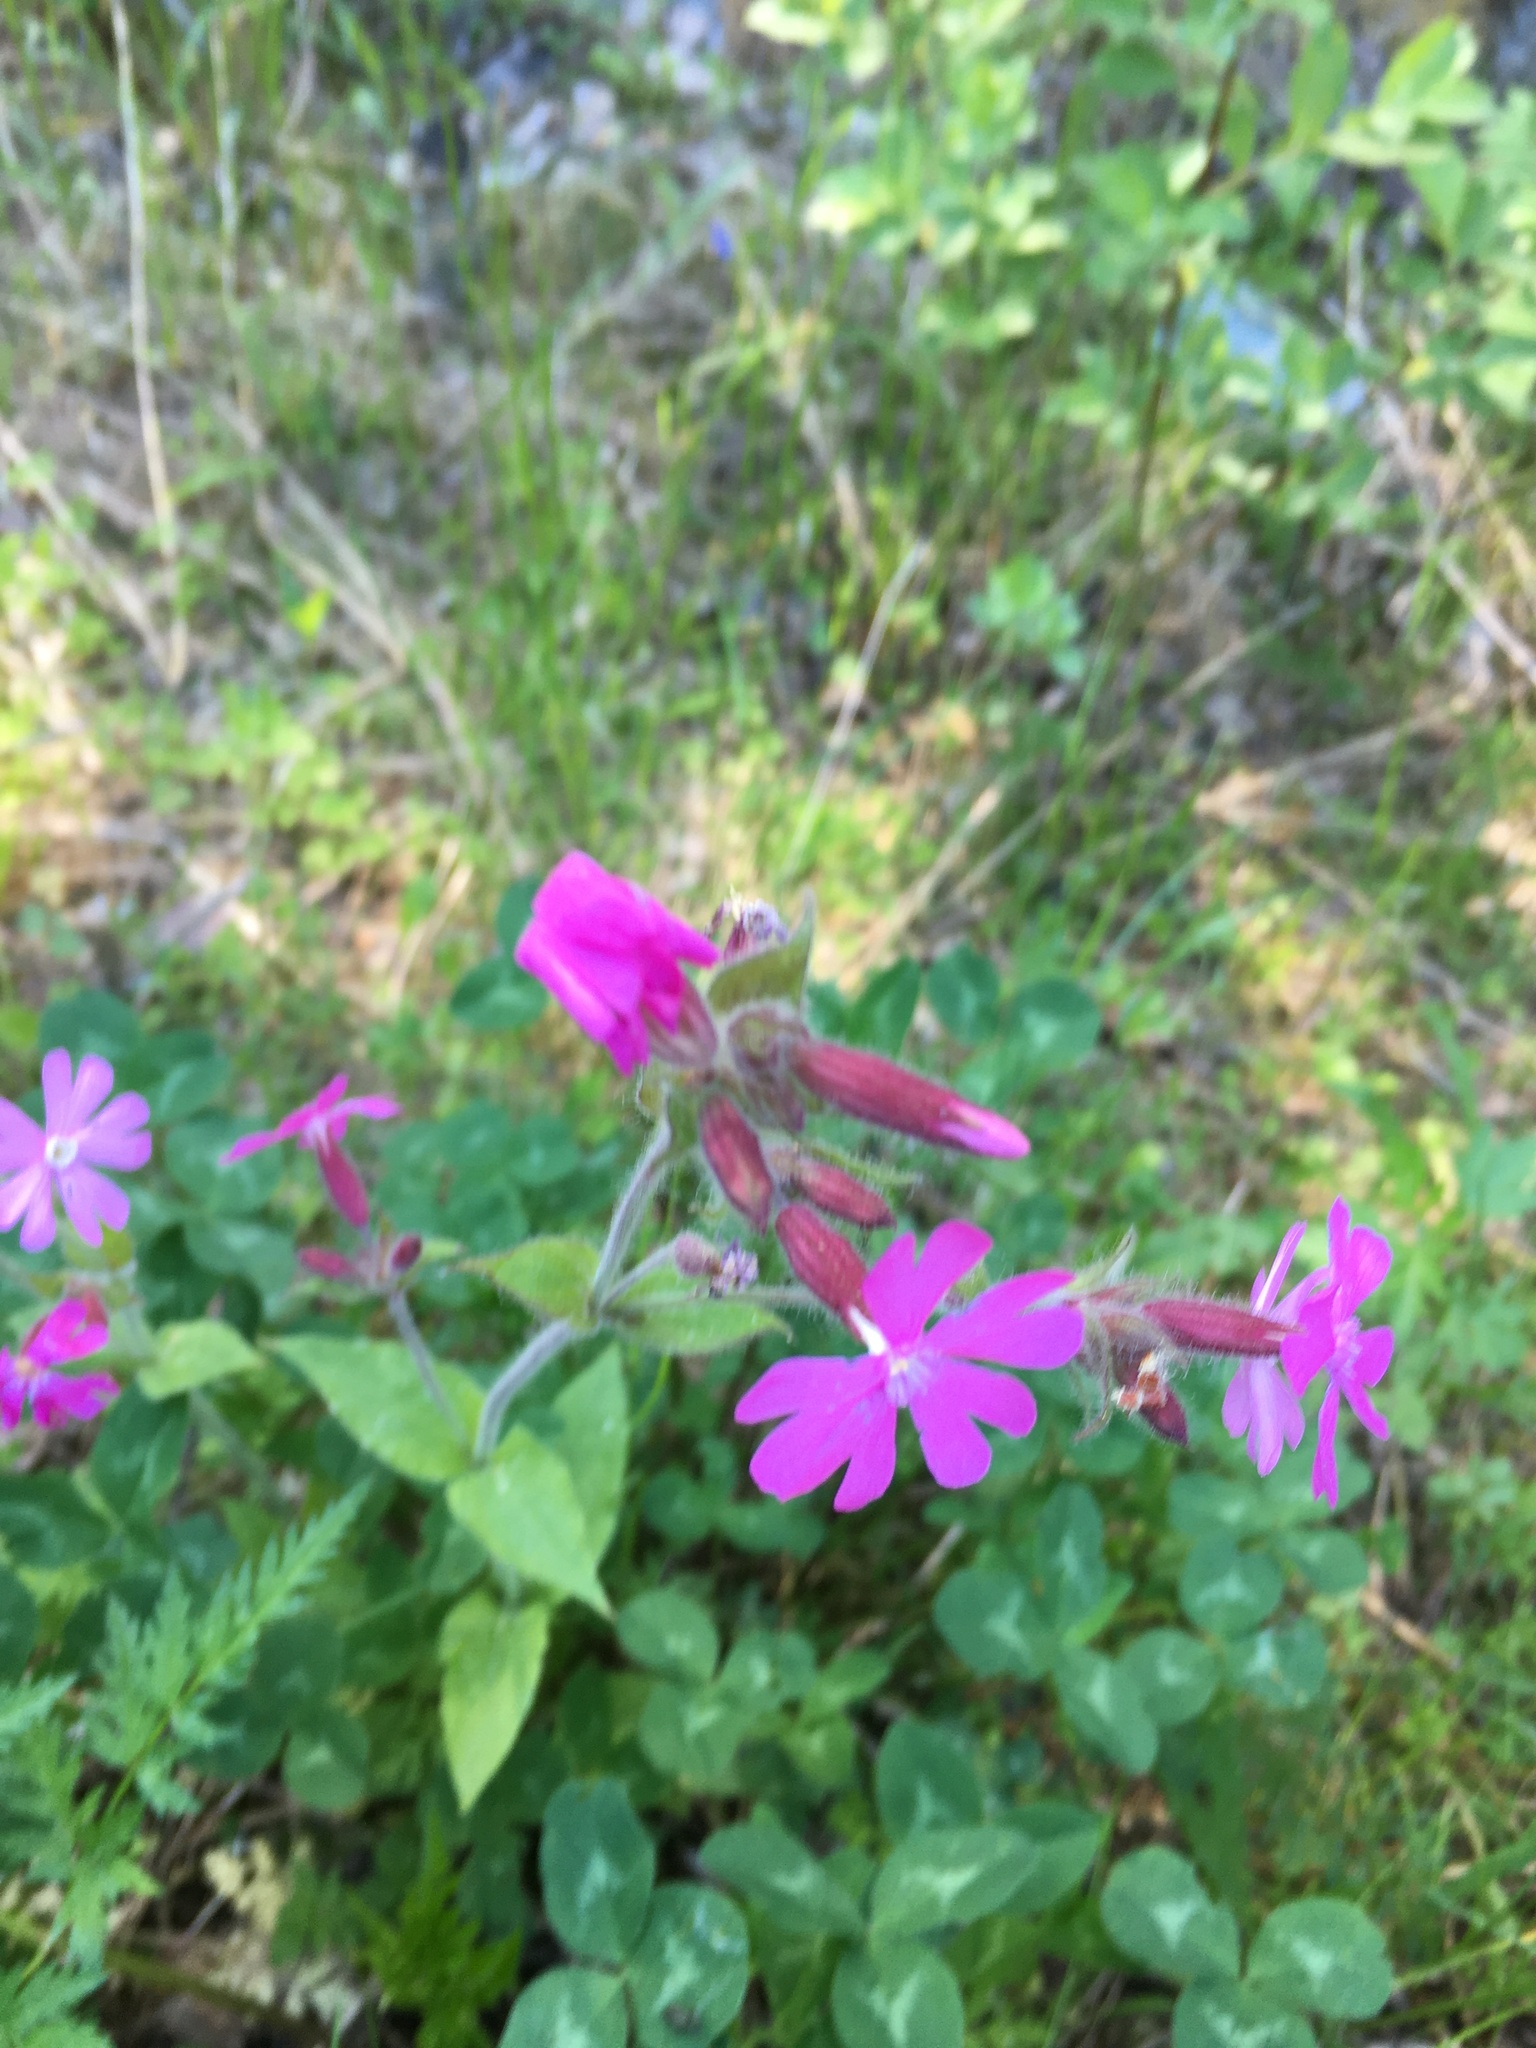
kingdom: Plantae
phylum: Tracheophyta
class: Magnoliopsida
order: Caryophyllales
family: Caryophyllaceae
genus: Silene
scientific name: Silene dioica
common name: Red campion
